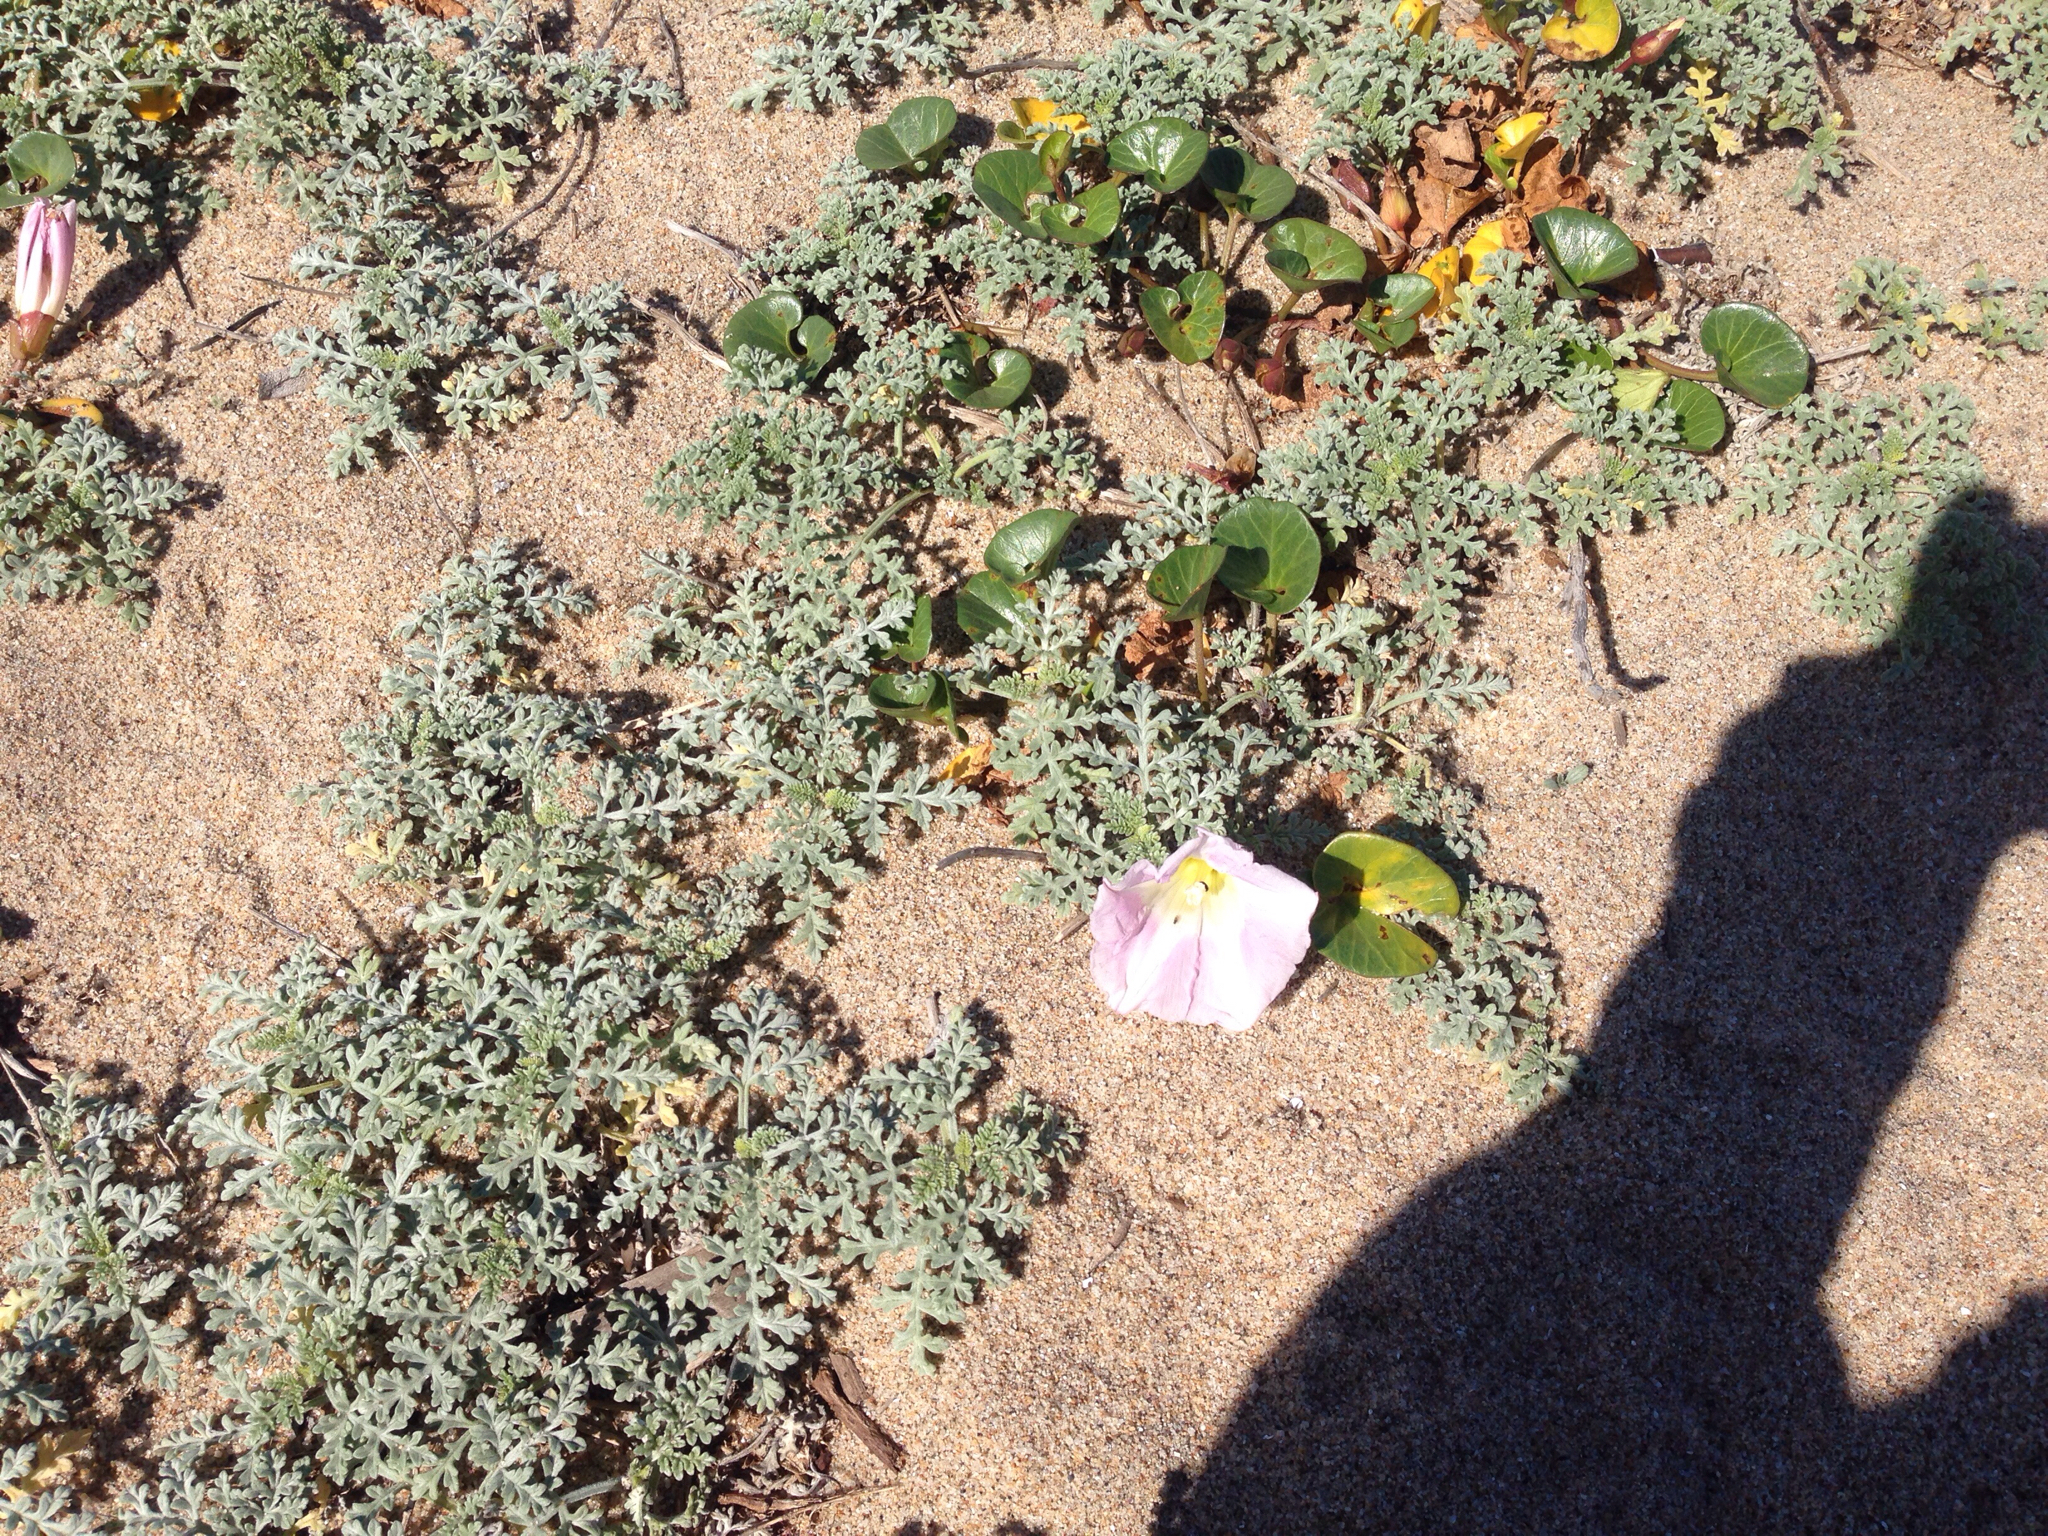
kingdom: Plantae
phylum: Tracheophyta
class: Magnoliopsida
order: Solanales
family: Convolvulaceae
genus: Calystegia
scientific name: Calystegia soldanella
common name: Sea bindweed
